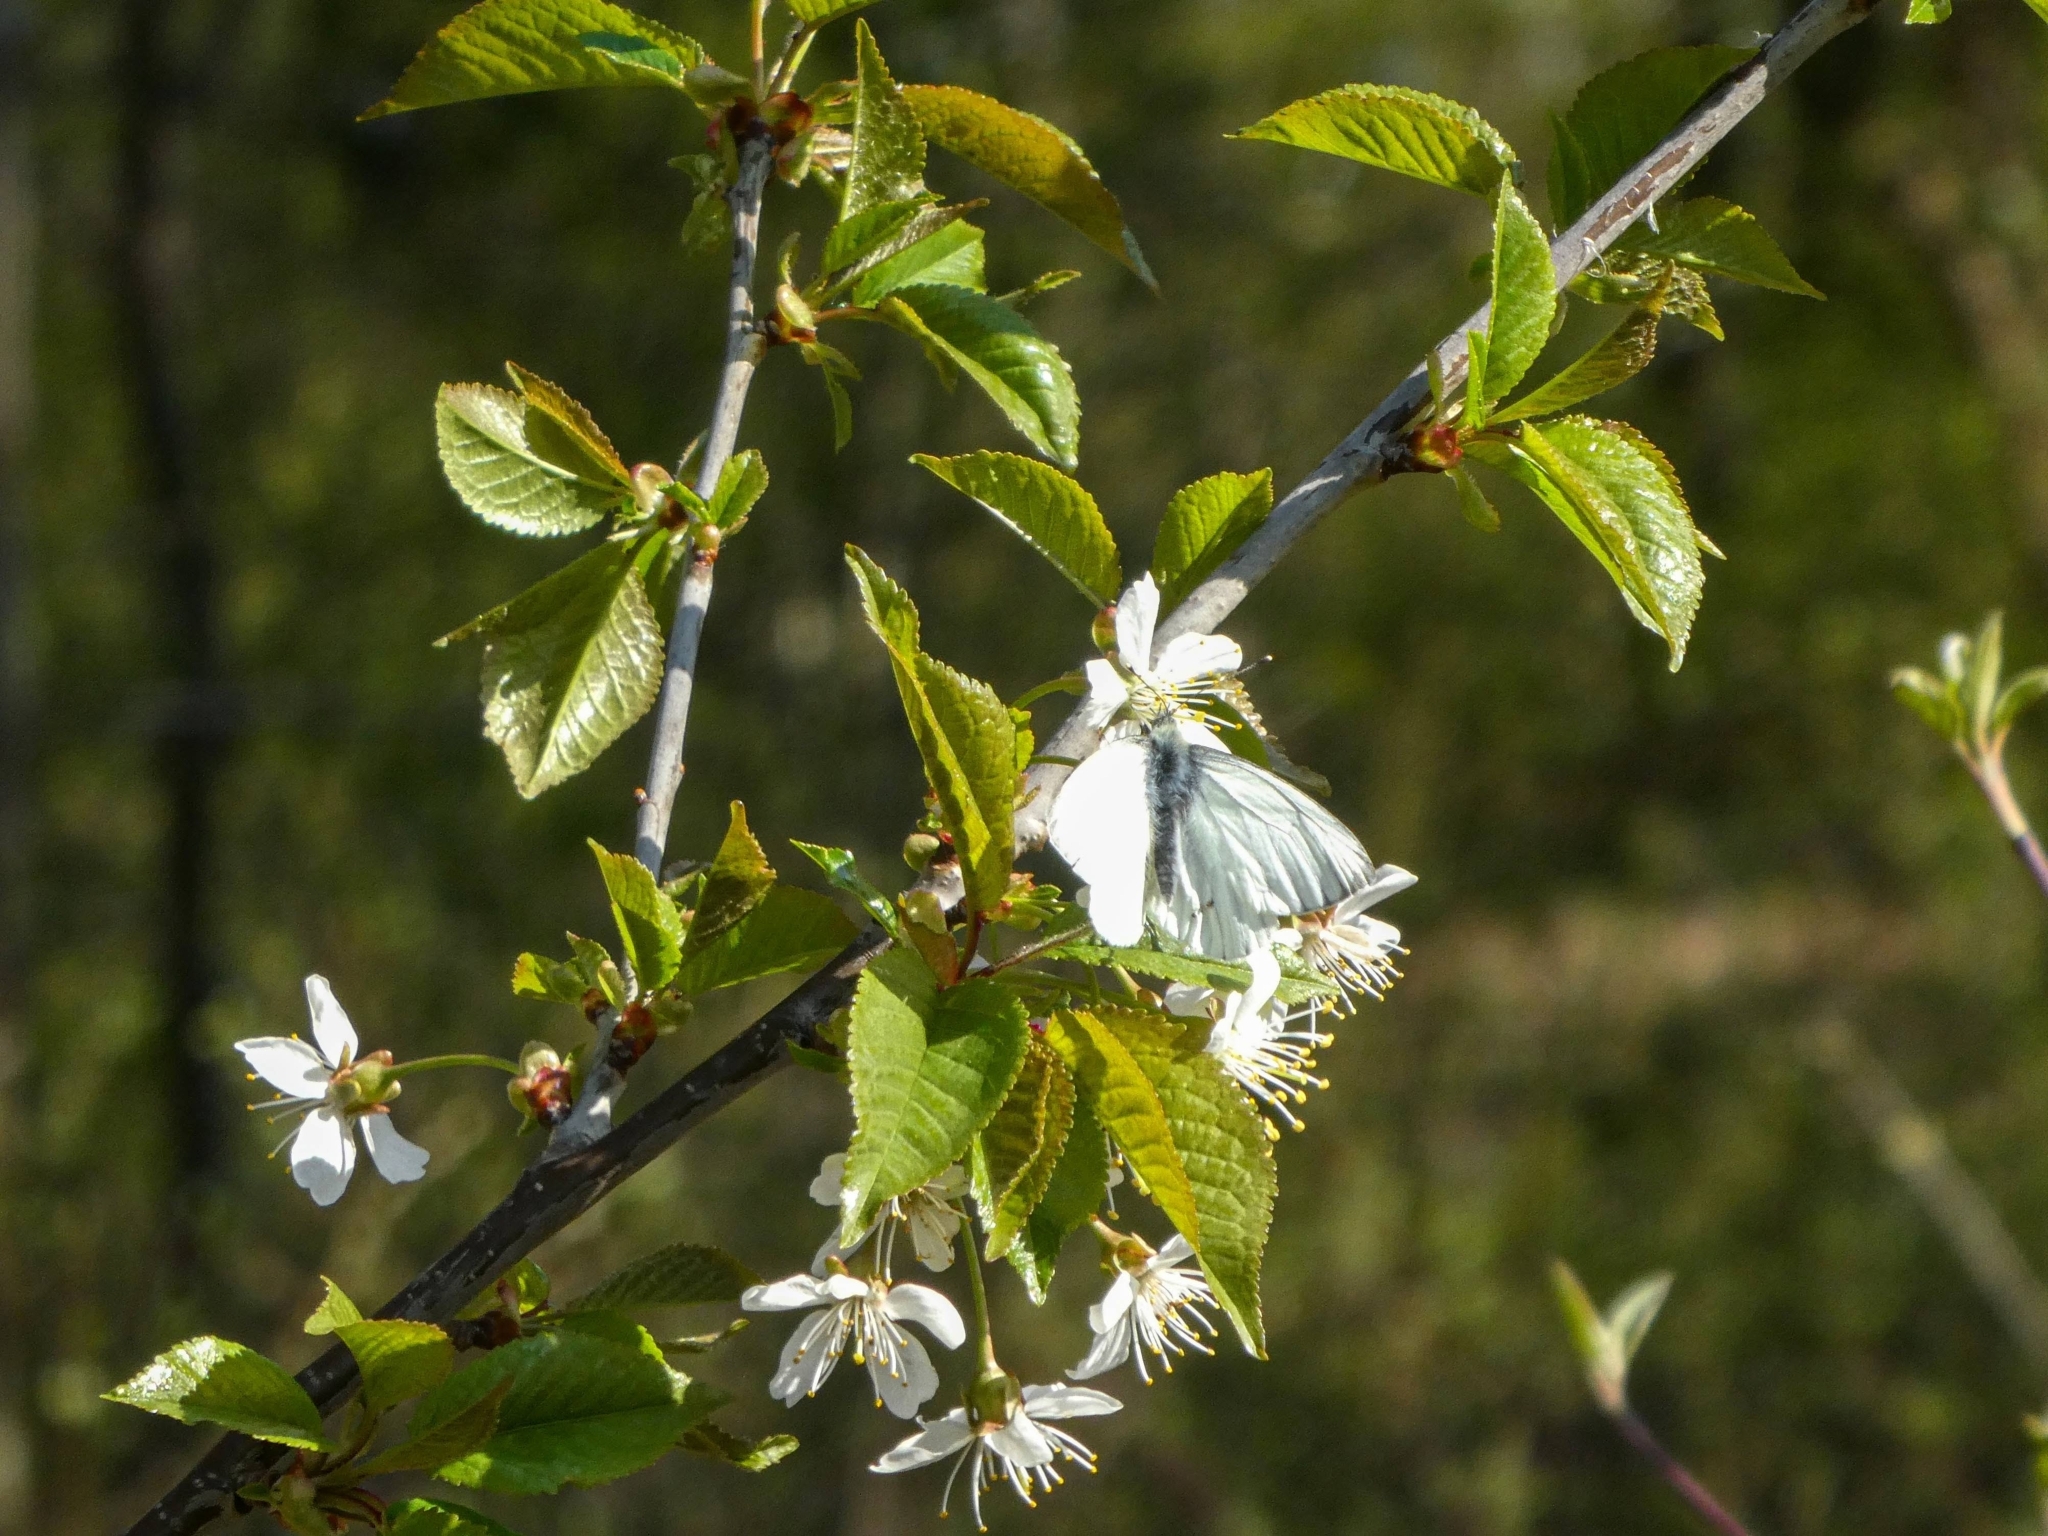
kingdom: Animalia
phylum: Arthropoda
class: Insecta
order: Lepidoptera
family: Pieridae
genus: Pieris
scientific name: Pieris napi
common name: Green-veined white
